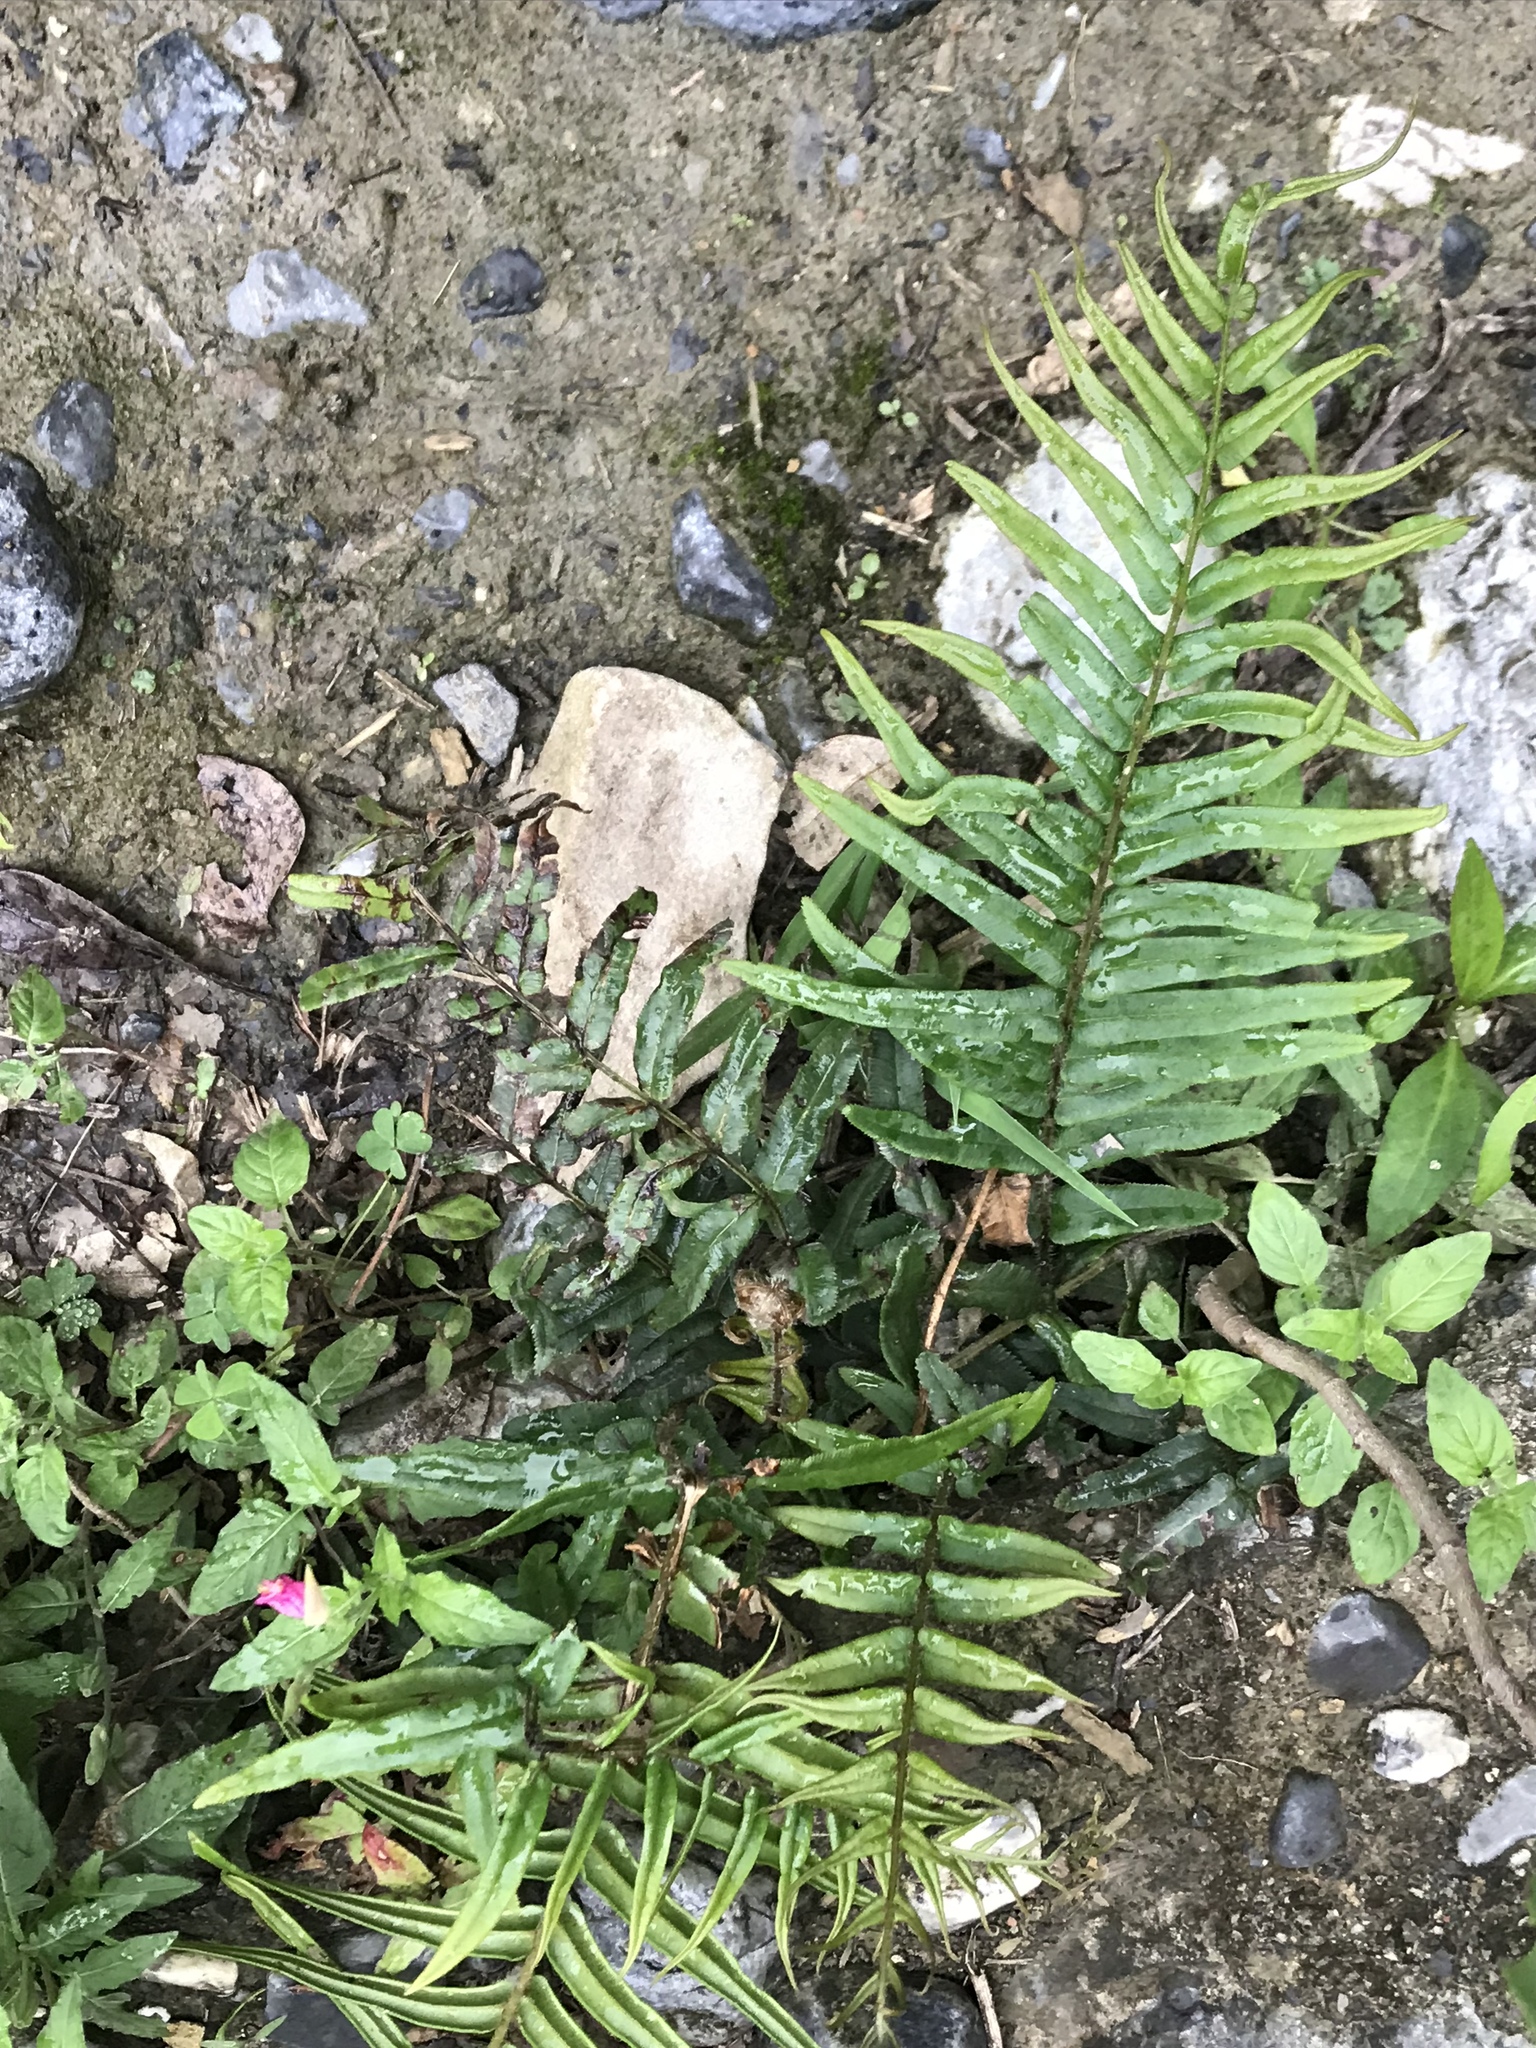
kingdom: Plantae
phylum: Tracheophyta
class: Polypodiopsida
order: Polypodiales
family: Pteridaceae
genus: Pteris
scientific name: Pteris vittata
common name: Ladder brake
